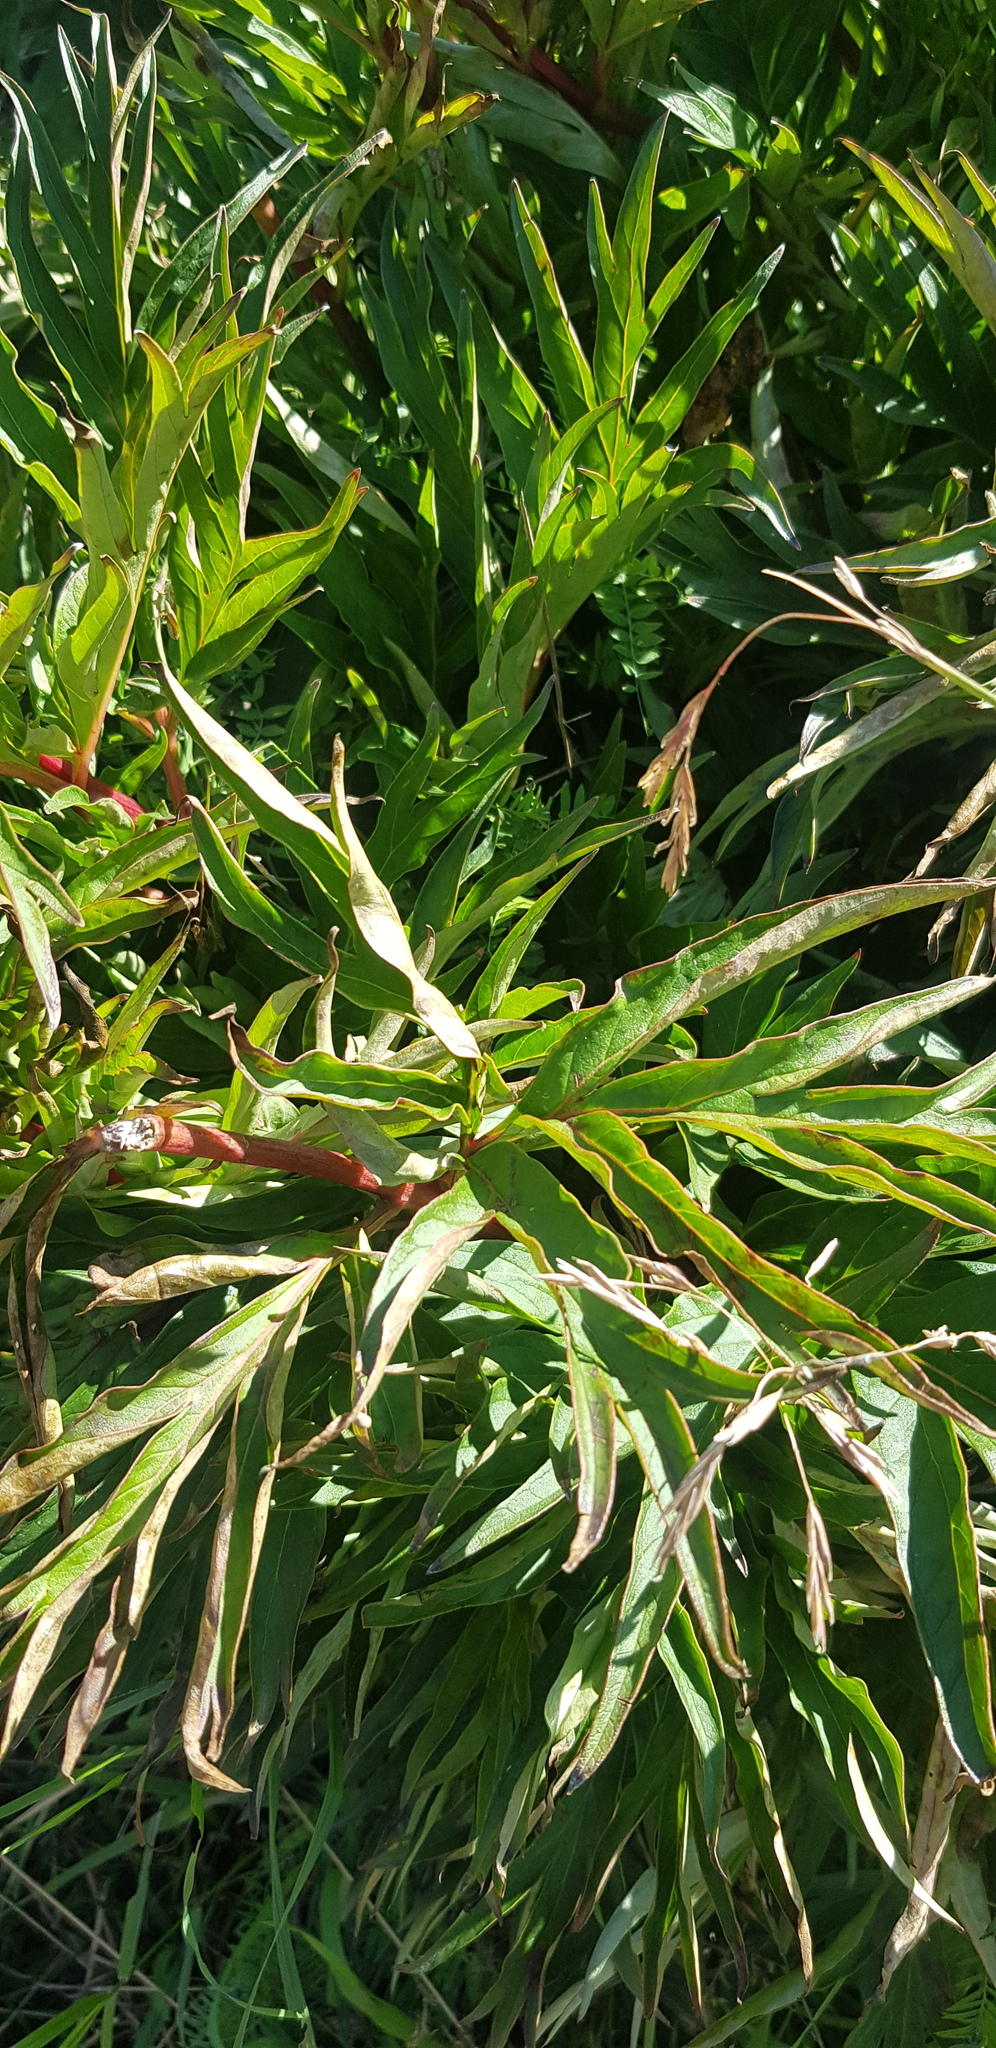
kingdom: Plantae
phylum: Tracheophyta
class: Magnoliopsida
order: Saxifragales
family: Paeoniaceae
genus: Paeonia
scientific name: Paeonia anomala
